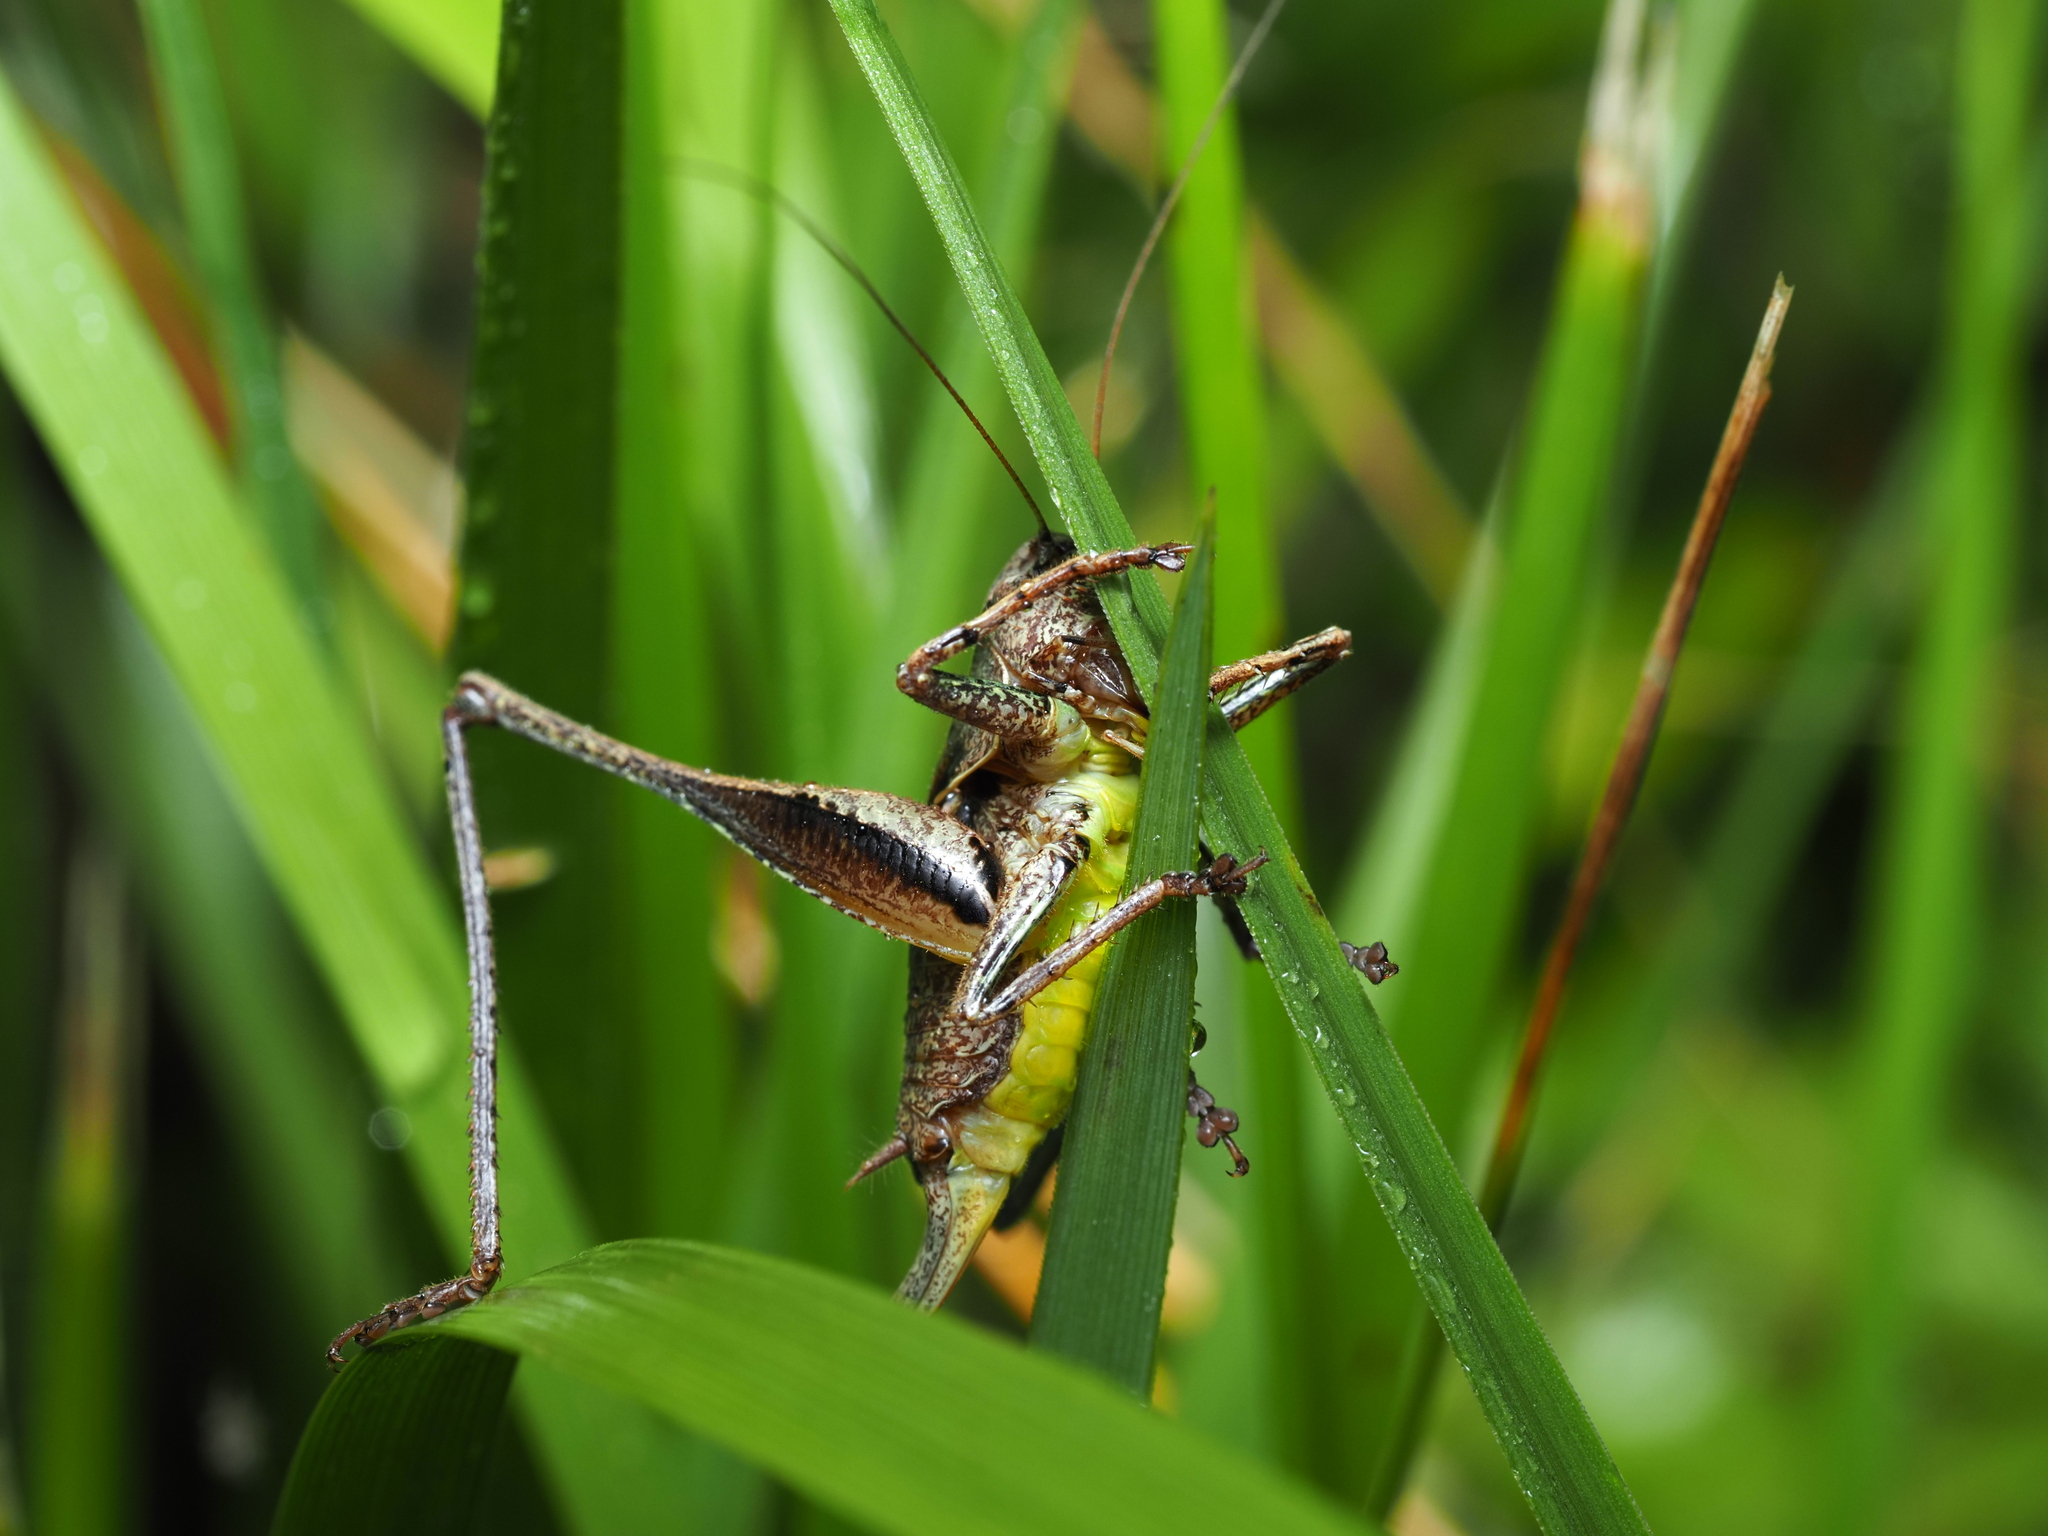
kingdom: Animalia
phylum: Arthropoda
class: Insecta
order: Orthoptera
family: Tettigoniidae
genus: Pholidoptera
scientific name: Pholidoptera griseoaptera
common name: Dark bush-cricket
